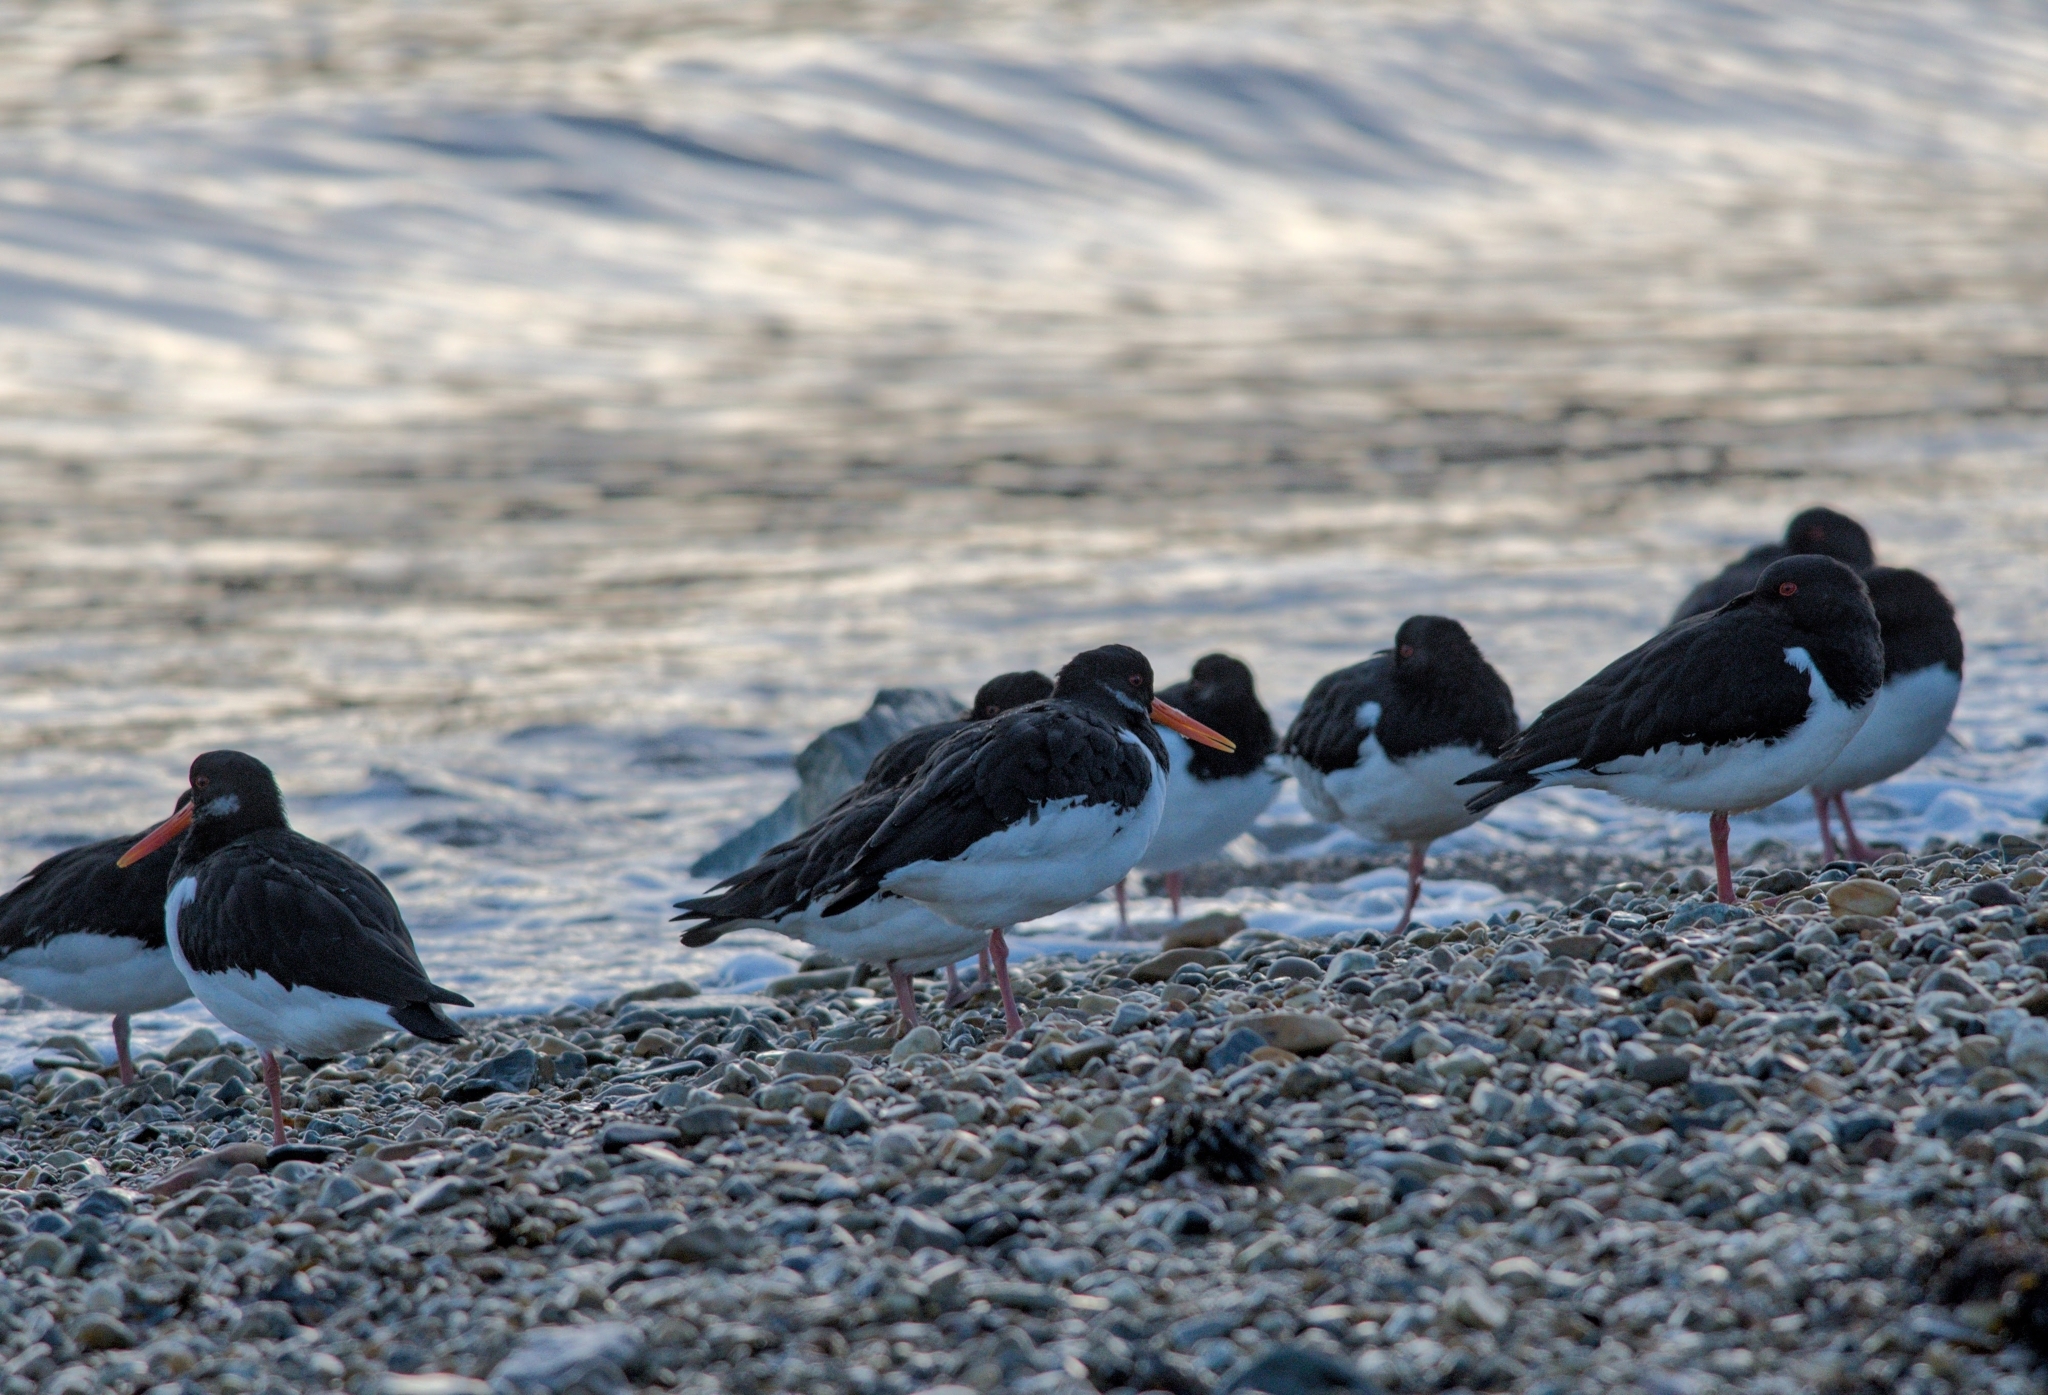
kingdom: Animalia
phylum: Chordata
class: Aves
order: Charadriiformes
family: Haematopodidae
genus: Haematopus
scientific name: Haematopus ostralegus
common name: Eurasian oystercatcher
